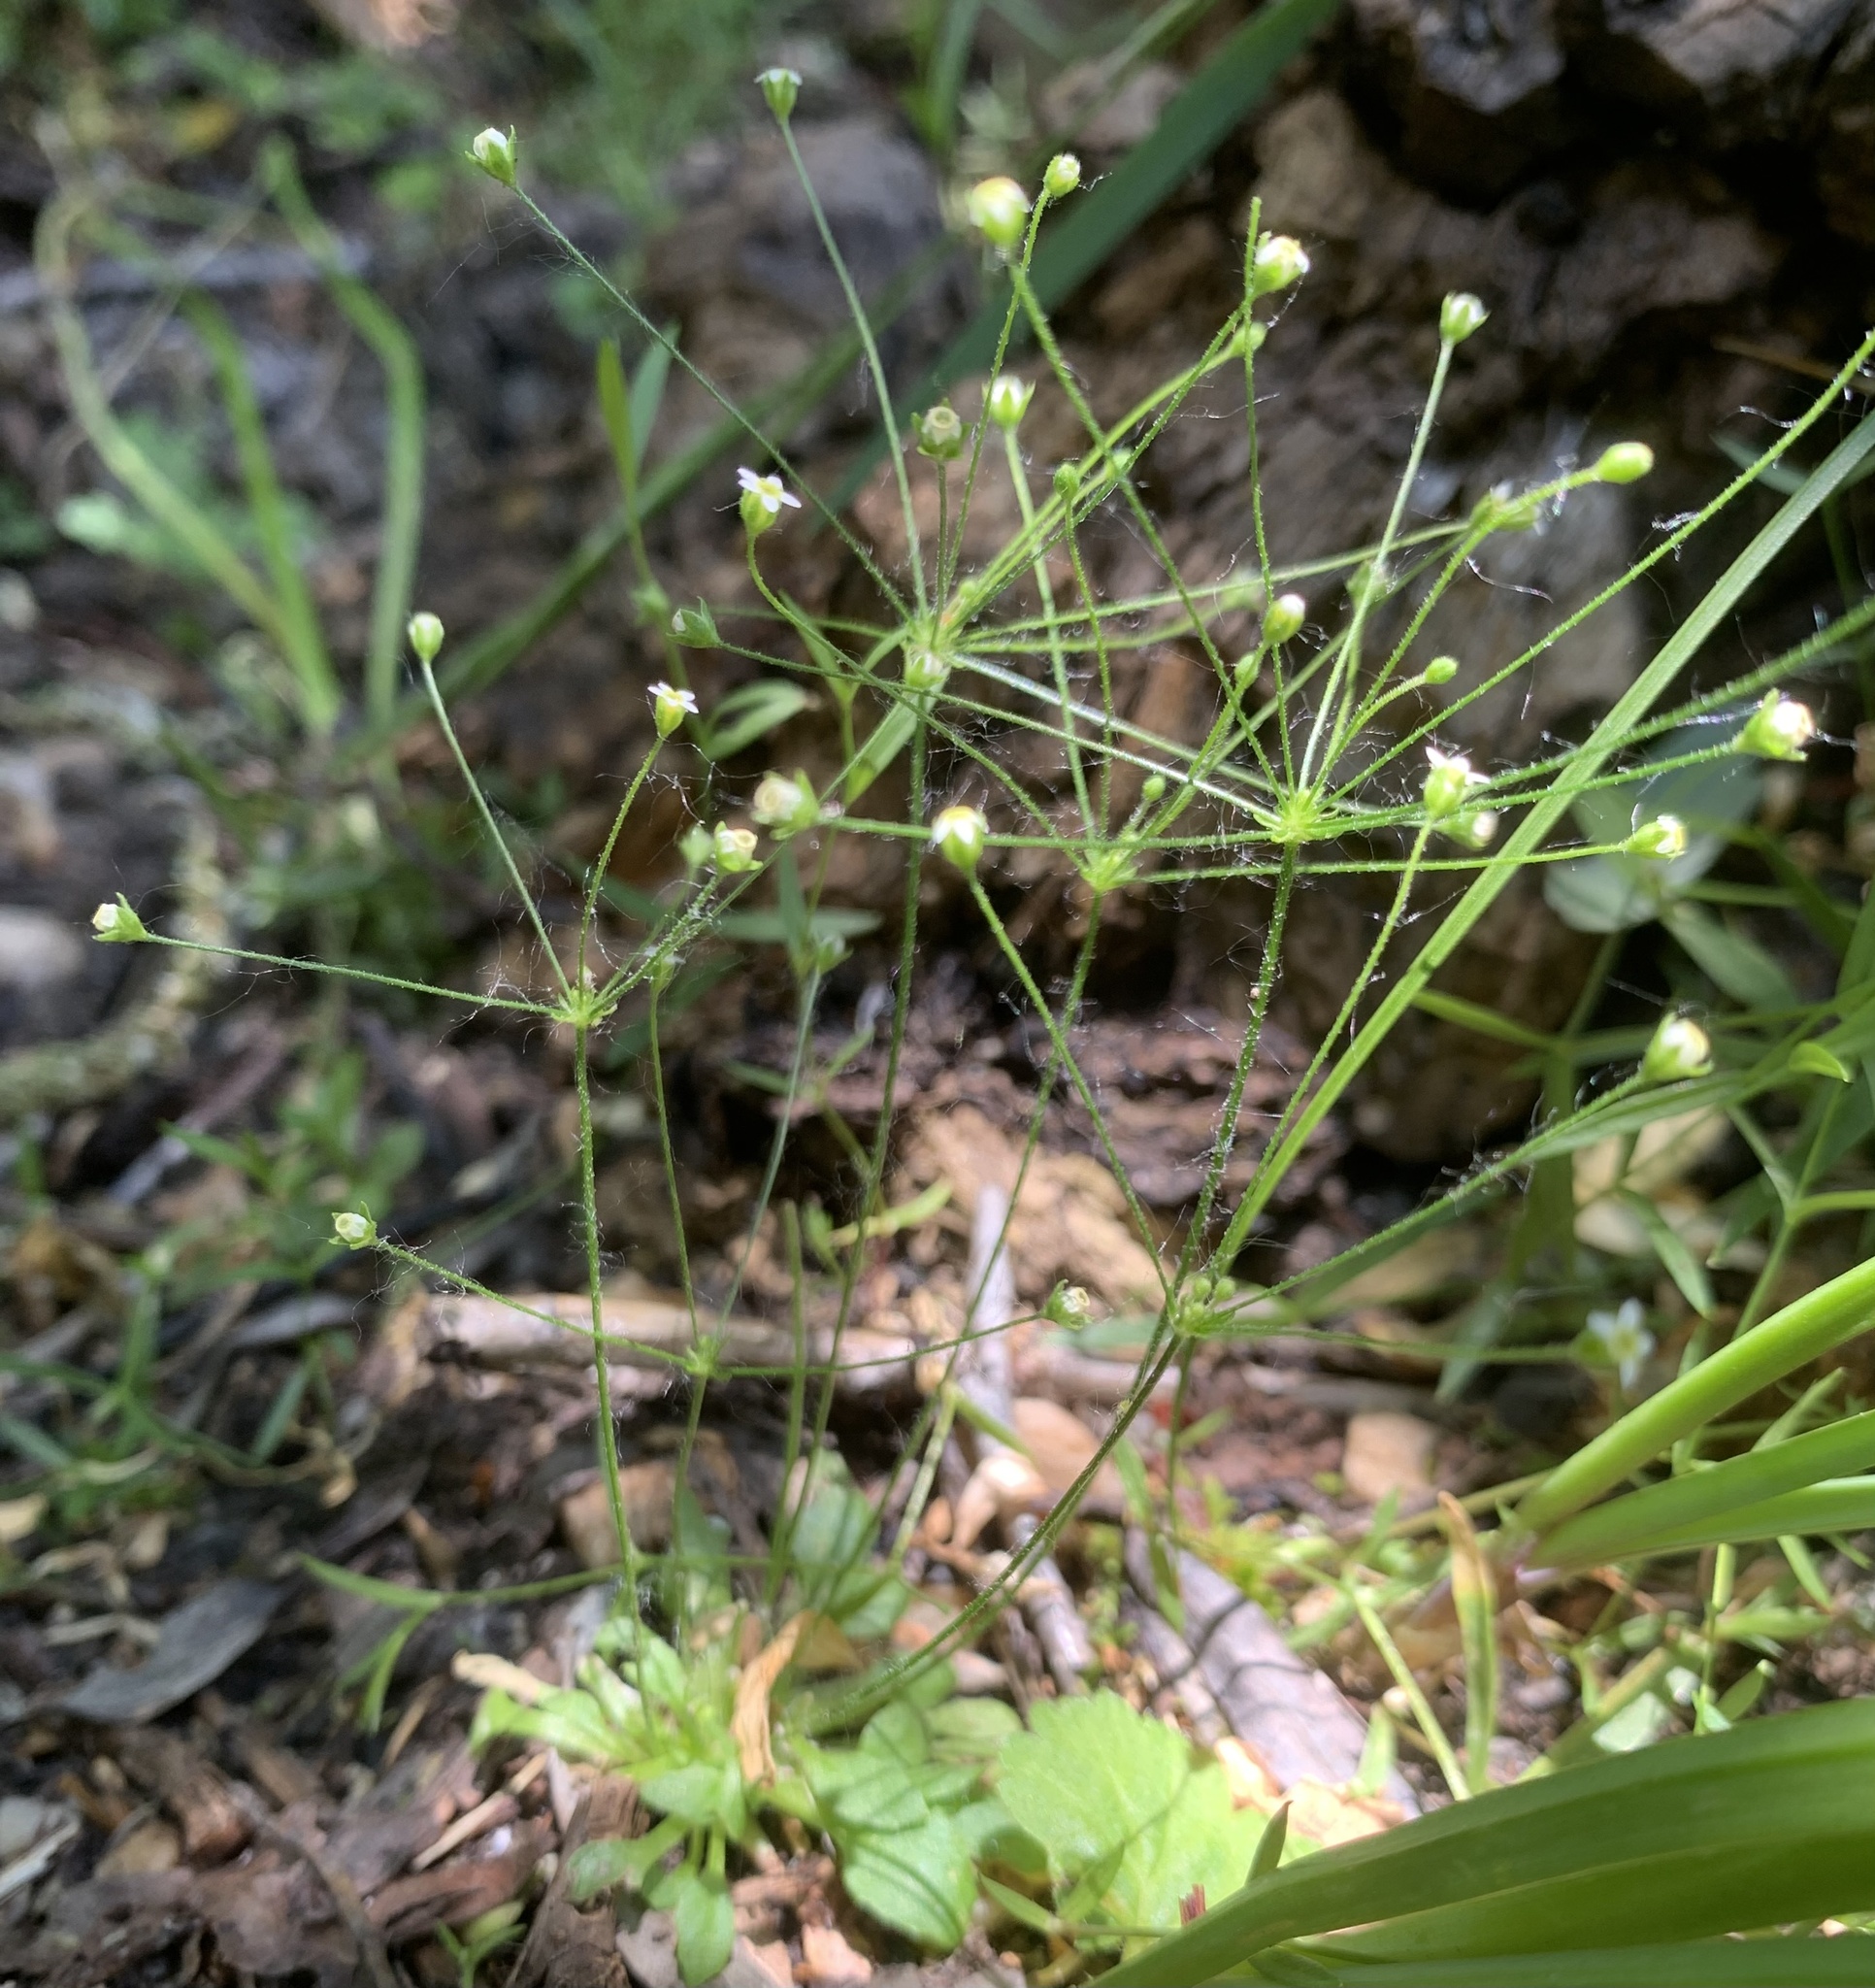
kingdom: Plantae
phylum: Tracheophyta
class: Magnoliopsida
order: Ericales
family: Primulaceae
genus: Androsace
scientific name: Androsace filiformis
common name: Filiform rock jasmine
